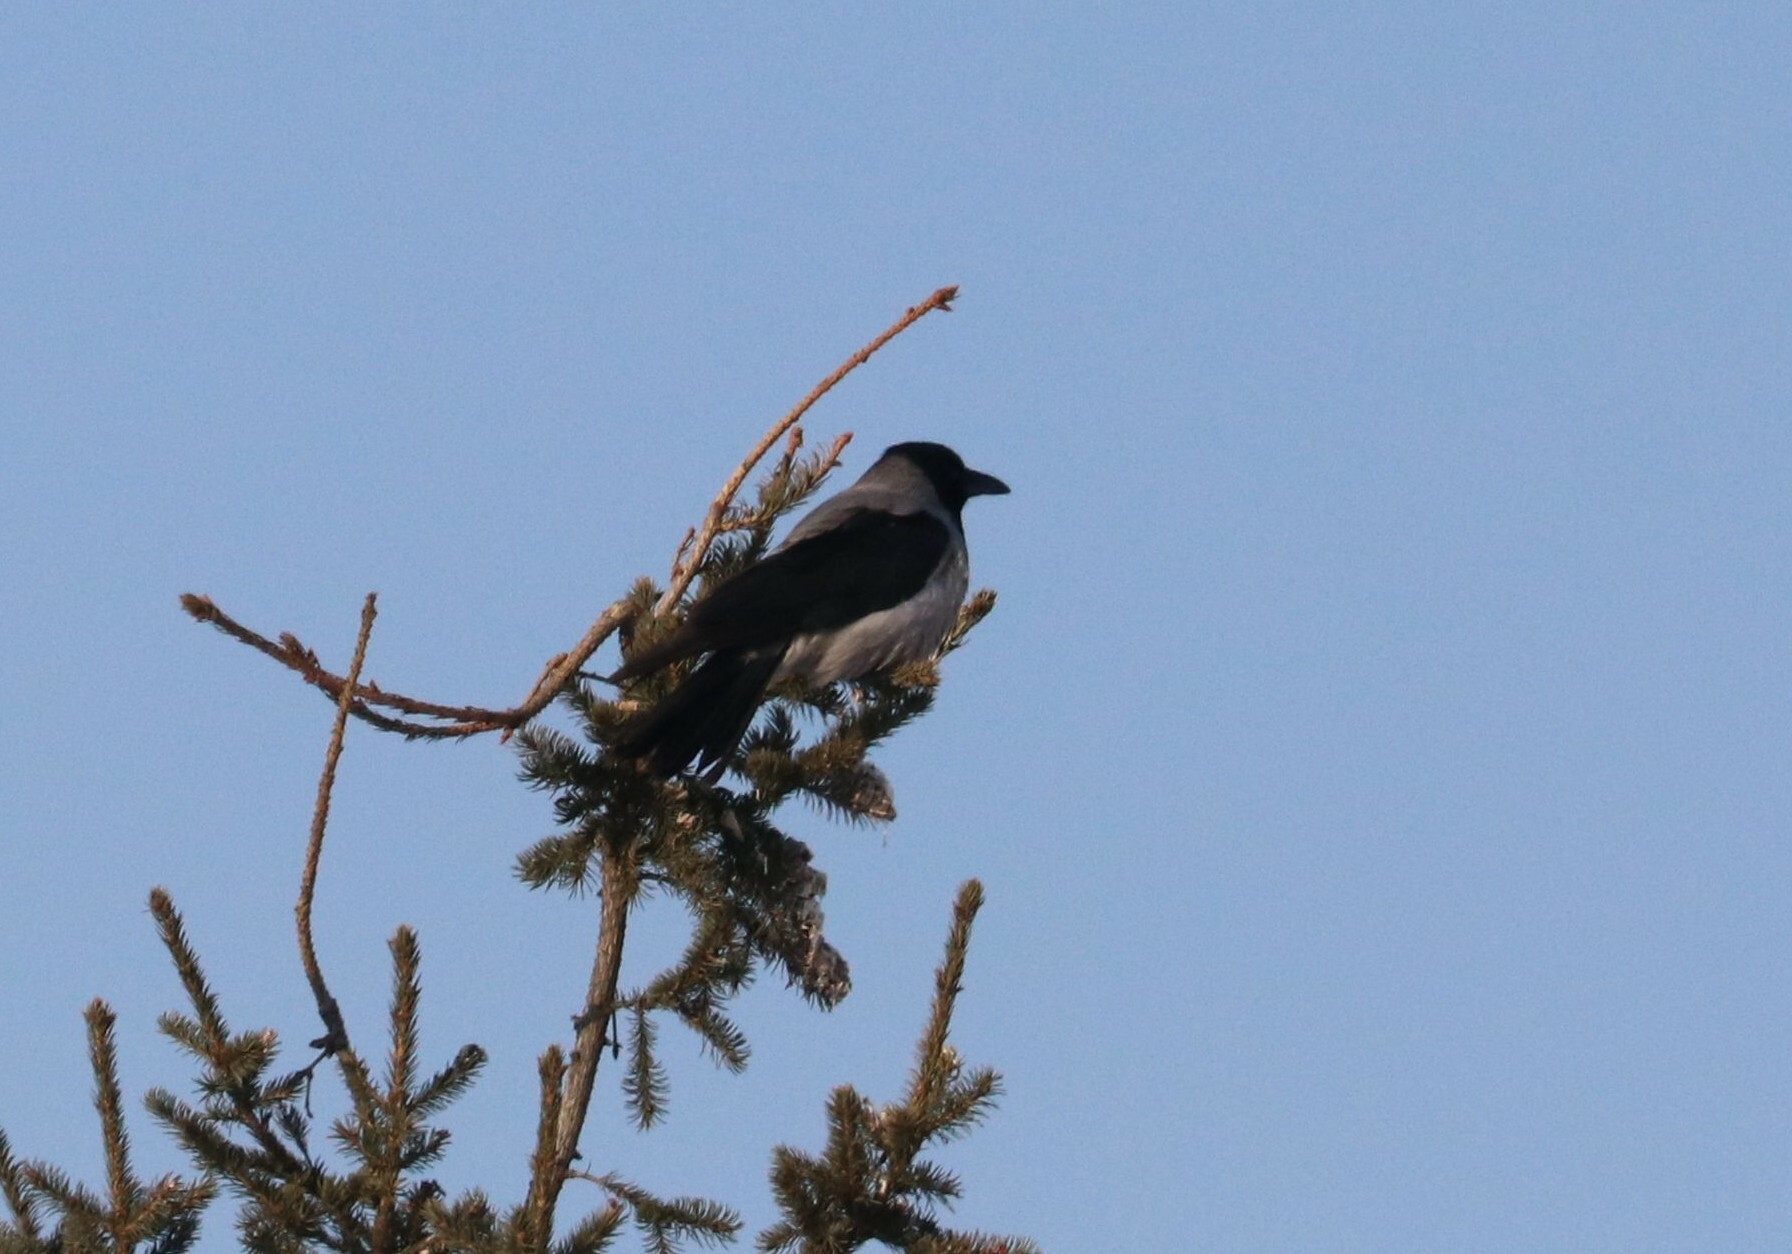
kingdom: Animalia
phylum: Chordata
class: Aves
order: Passeriformes
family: Corvidae
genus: Corvus
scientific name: Corvus cornix
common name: Hooded crow
